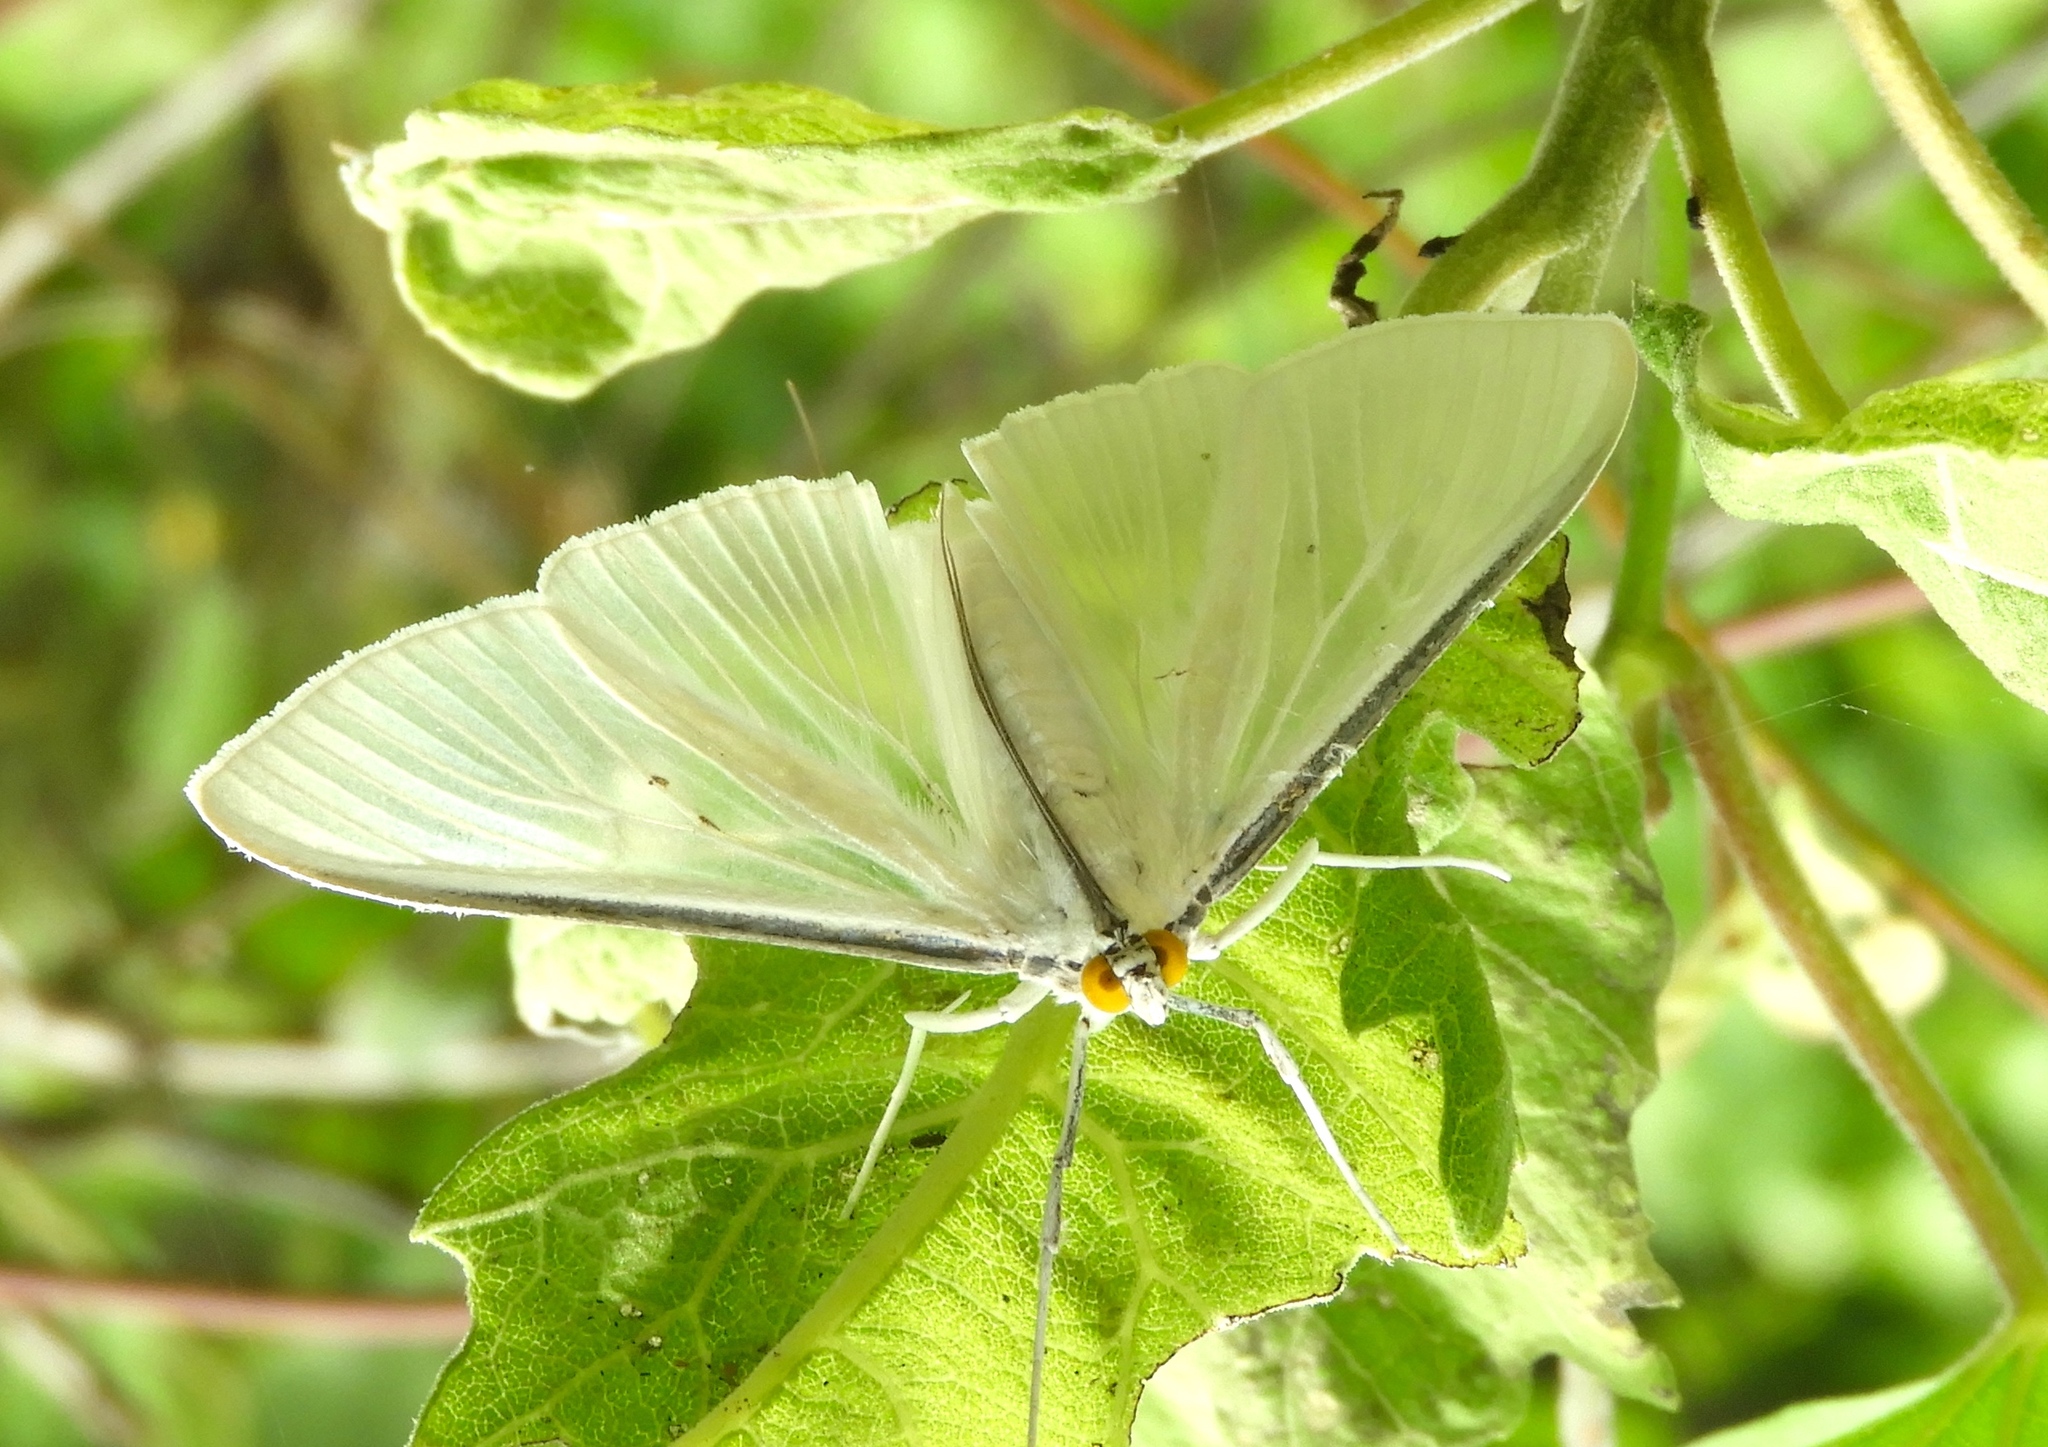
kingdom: Animalia
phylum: Arthropoda
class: Insecta
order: Lepidoptera
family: Crambidae
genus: Palpita
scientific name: Palpita flegia
